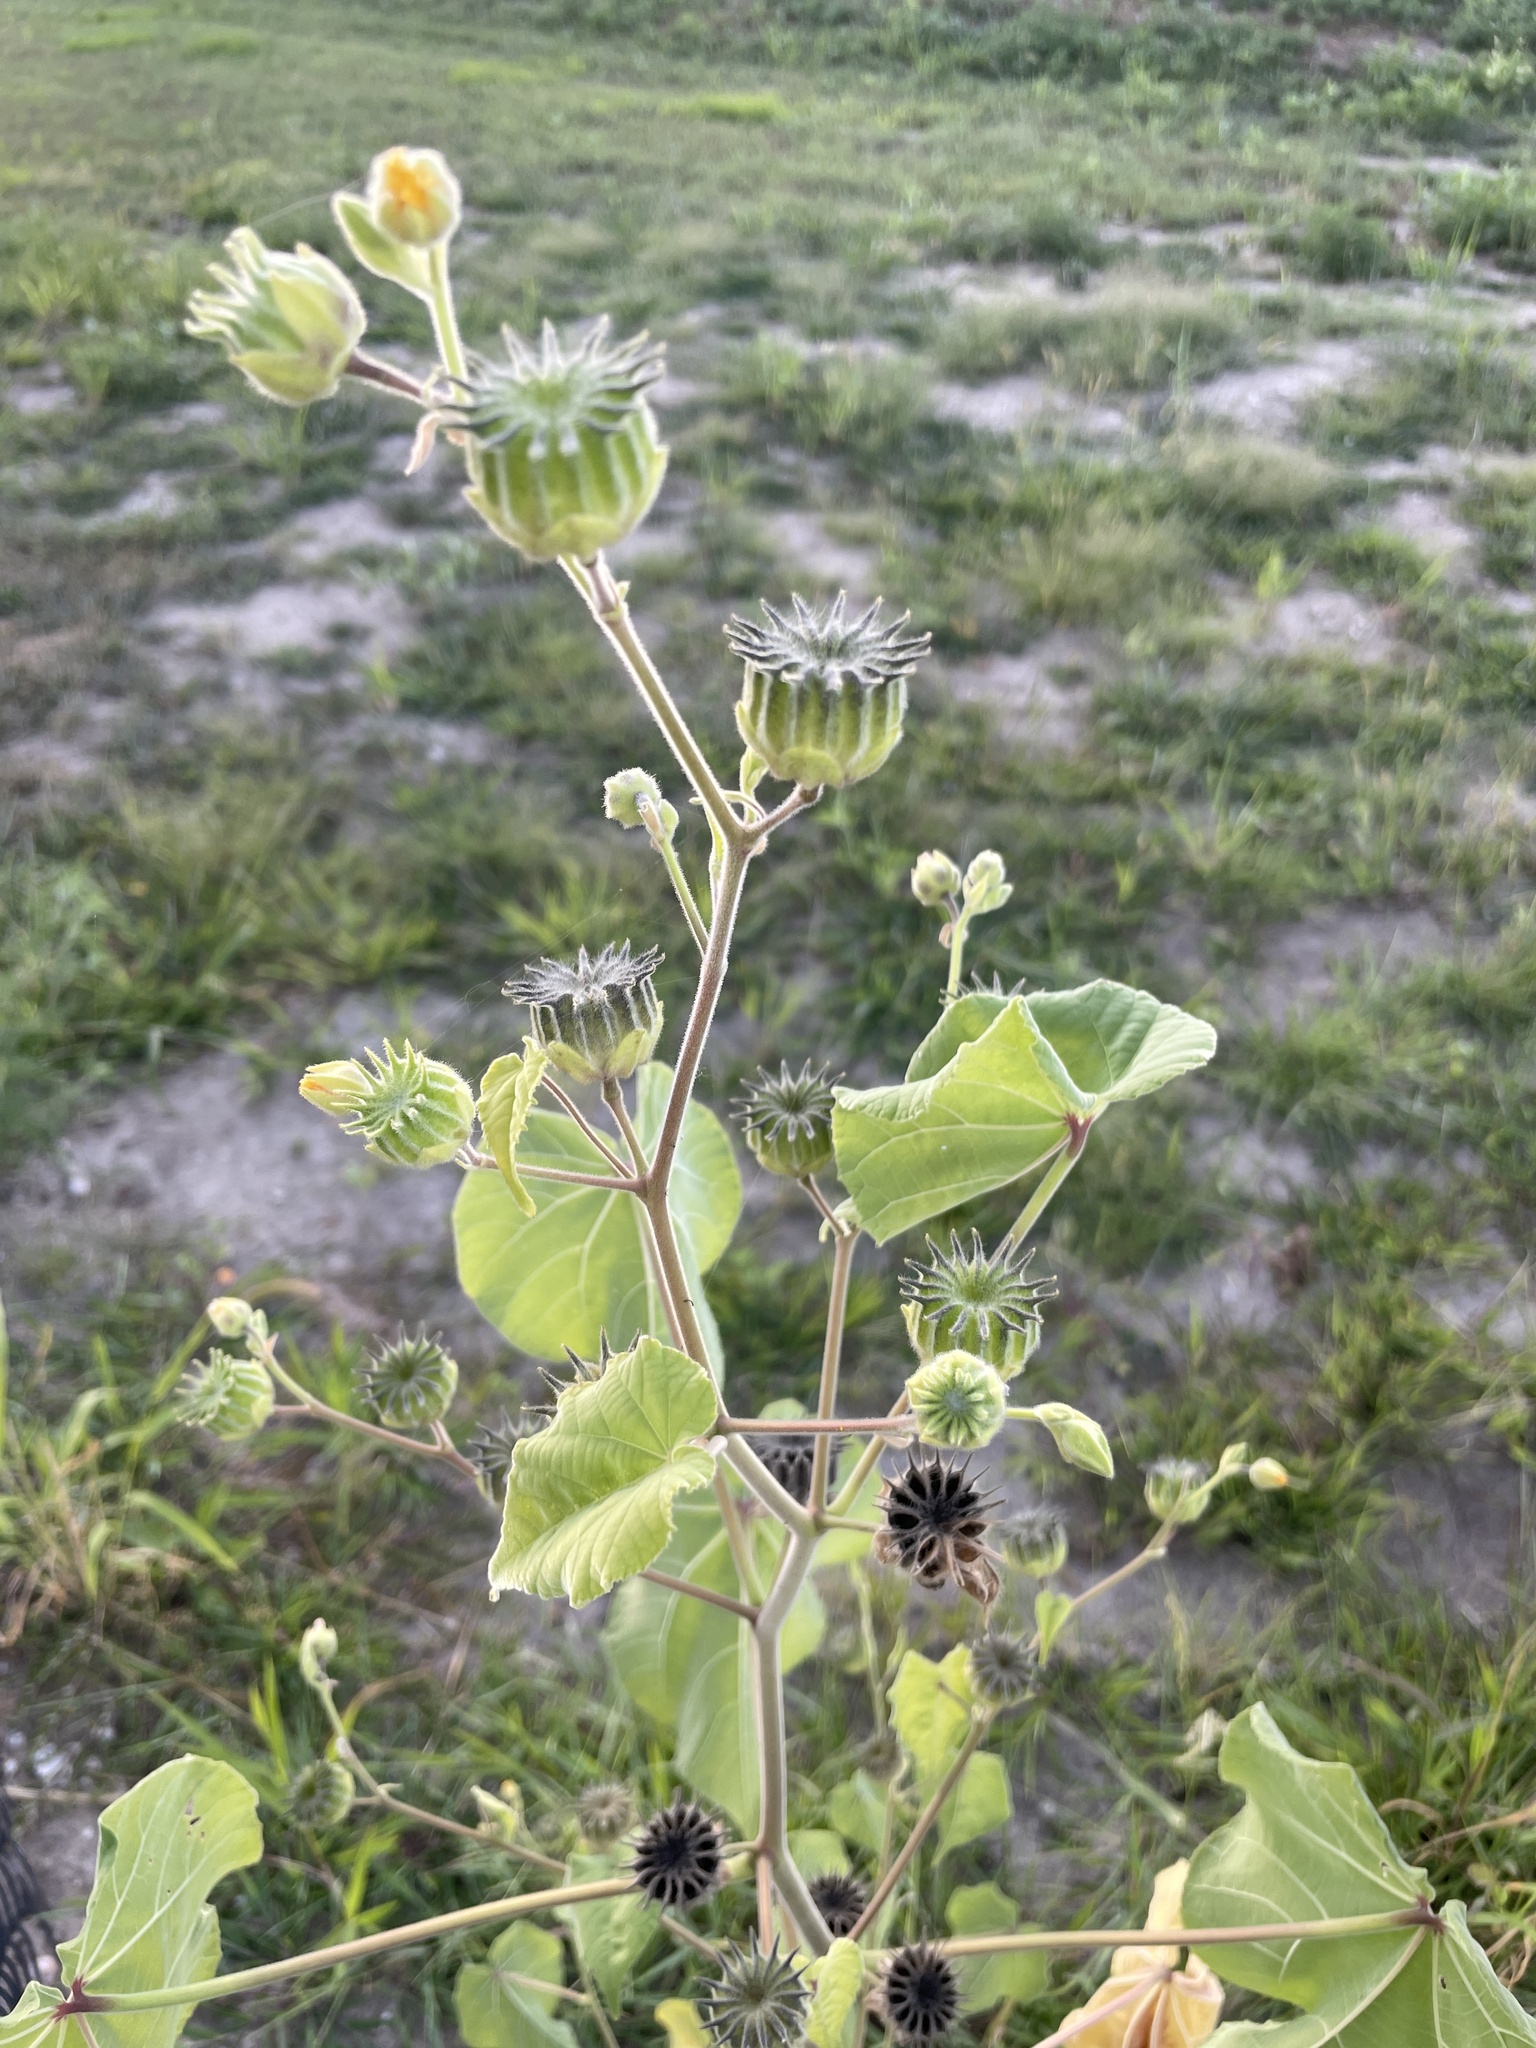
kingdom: Plantae
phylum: Tracheophyta
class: Magnoliopsida
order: Malvales
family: Malvaceae
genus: Abutilon
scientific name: Abutilon theophrasti
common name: Velvetleaf
